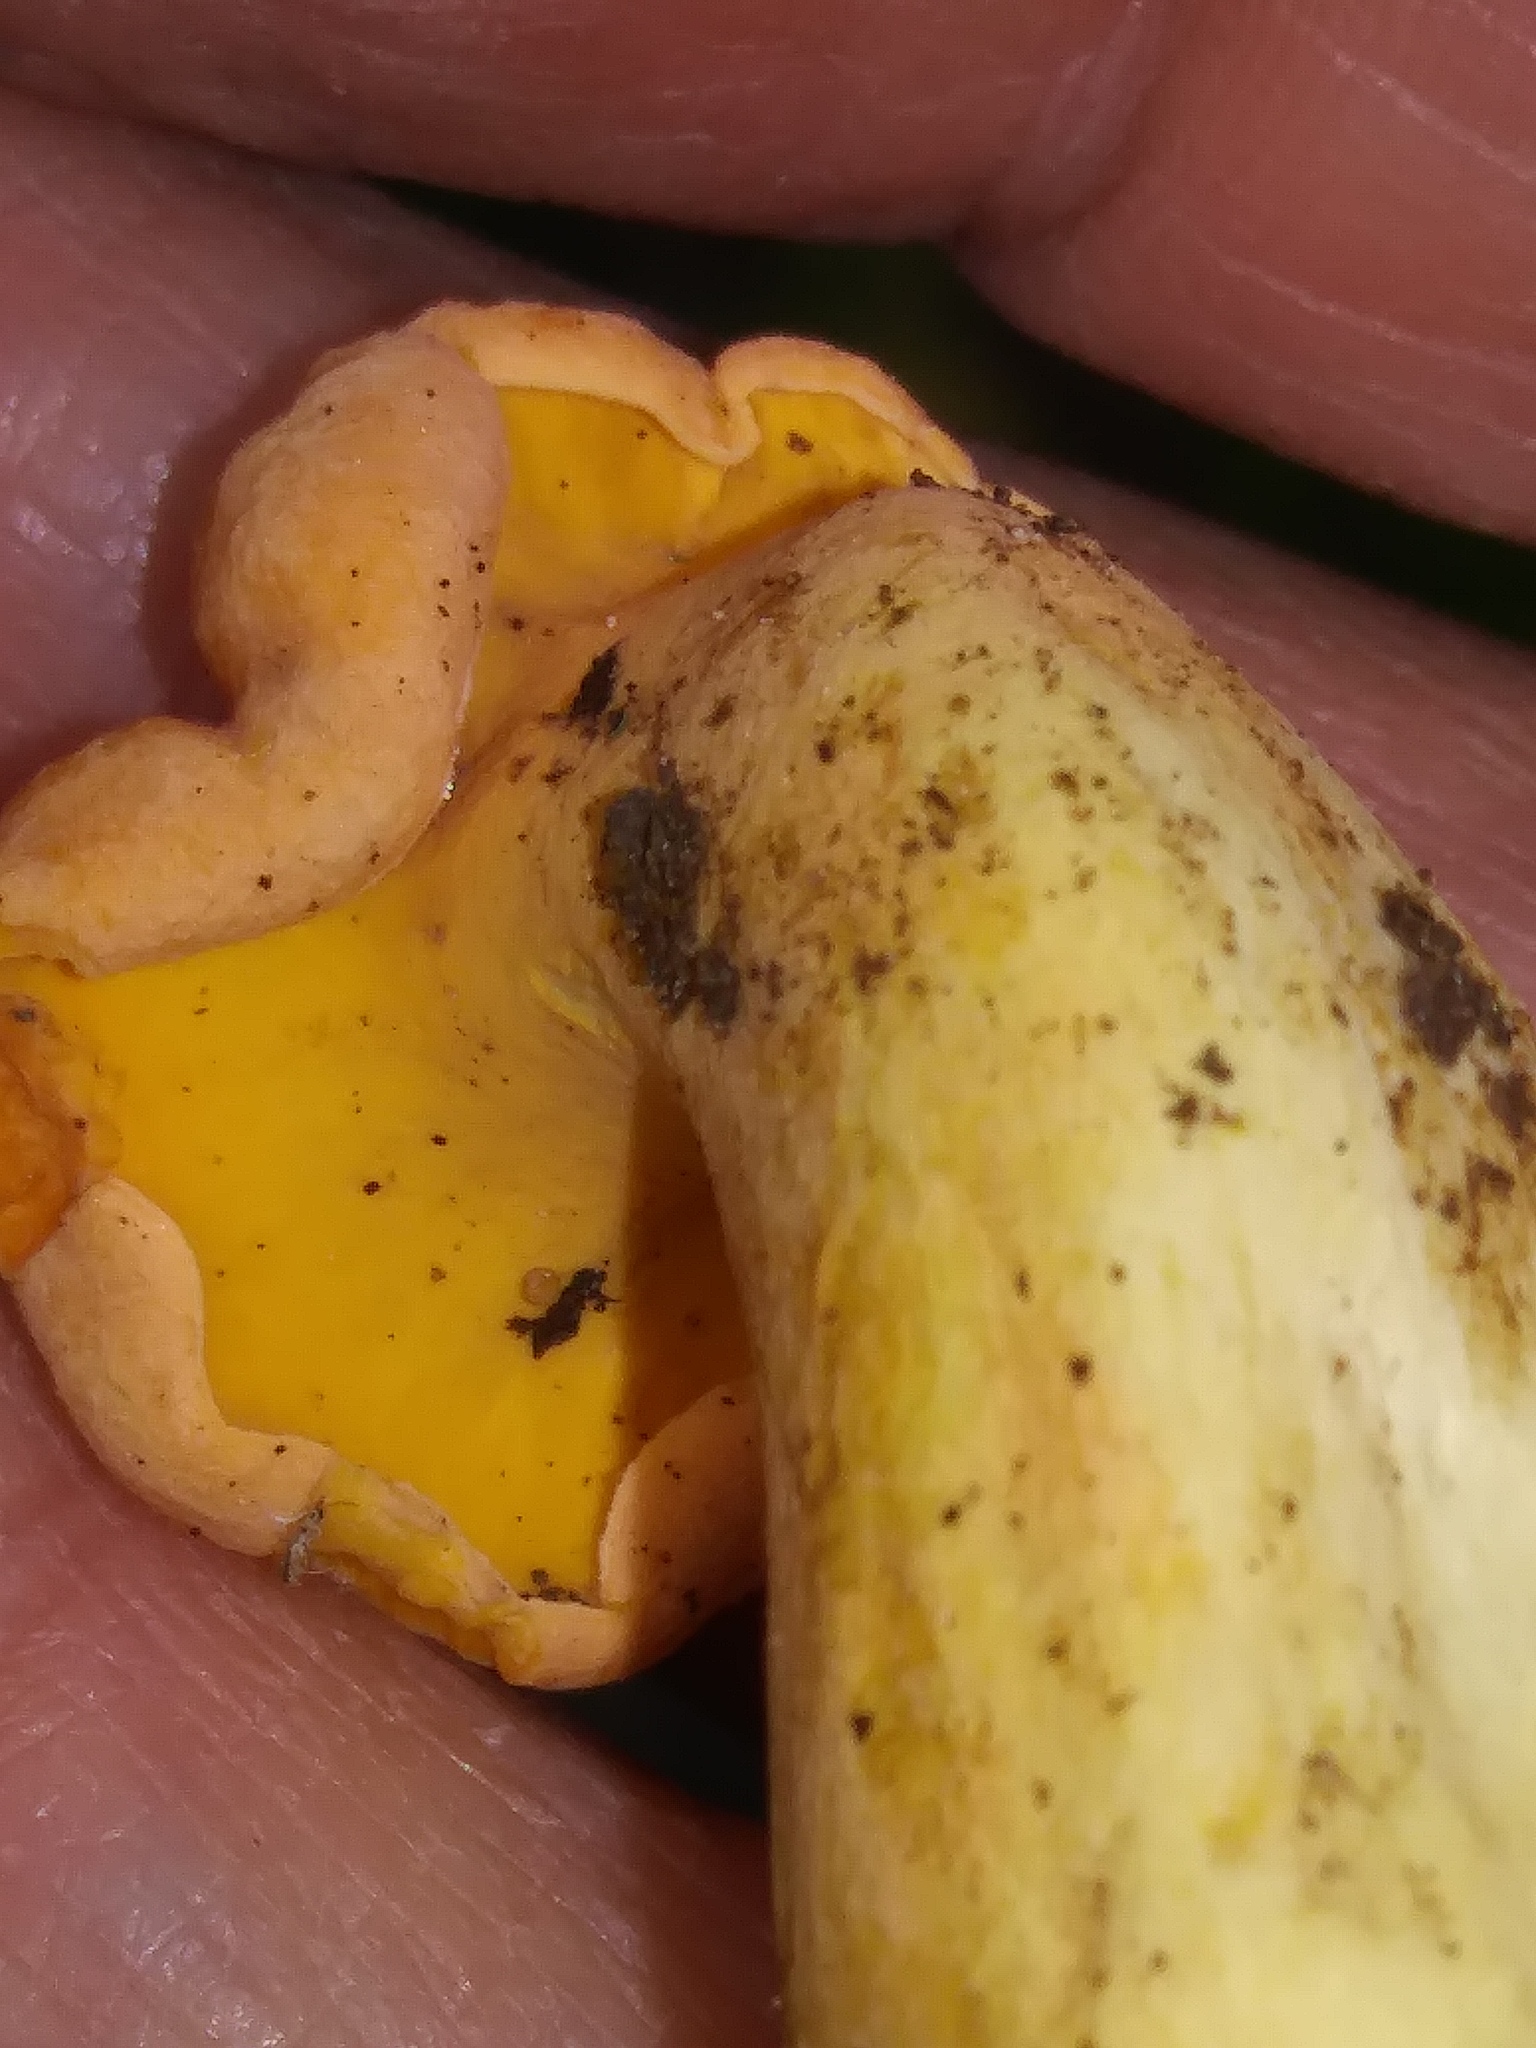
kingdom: Fungi
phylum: Basidiomycota
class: Agaricomycetes
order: Cantharellales
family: Hydnaceae
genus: Cantharellus
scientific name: Cantharellus lateritius
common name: Smooth chanterelle
